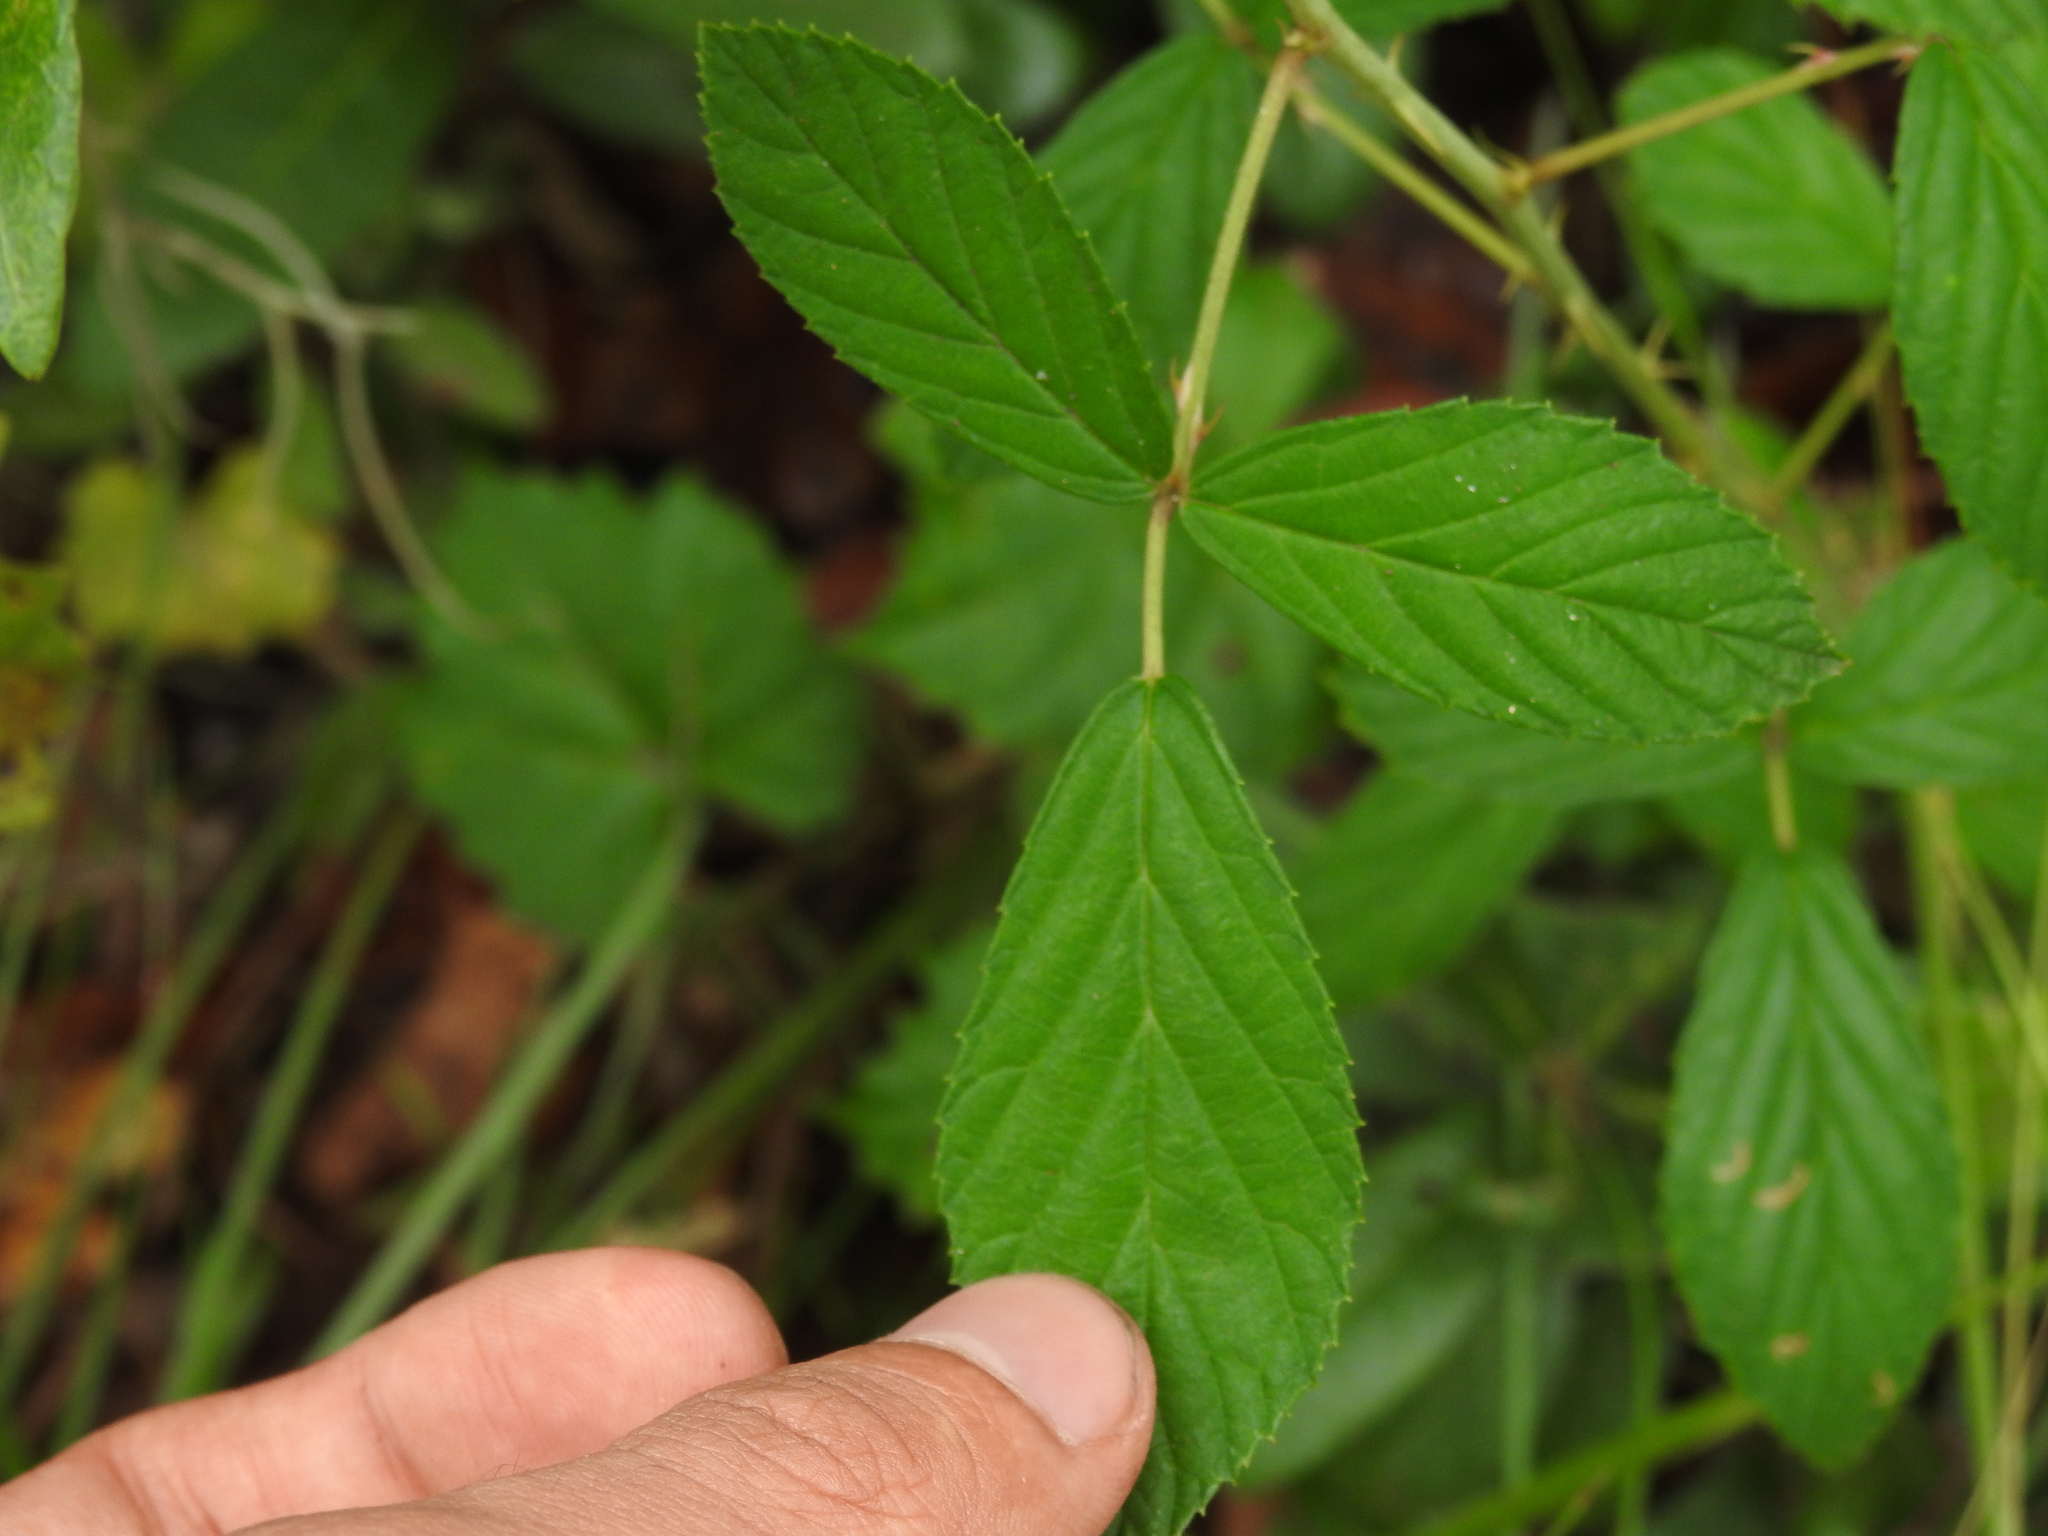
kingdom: Plantae
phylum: Tracheophyta
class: Magnoliopsida
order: Rosales
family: Rosaceae
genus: Rubus
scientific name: Rubus cuneifolius
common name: American bramble
